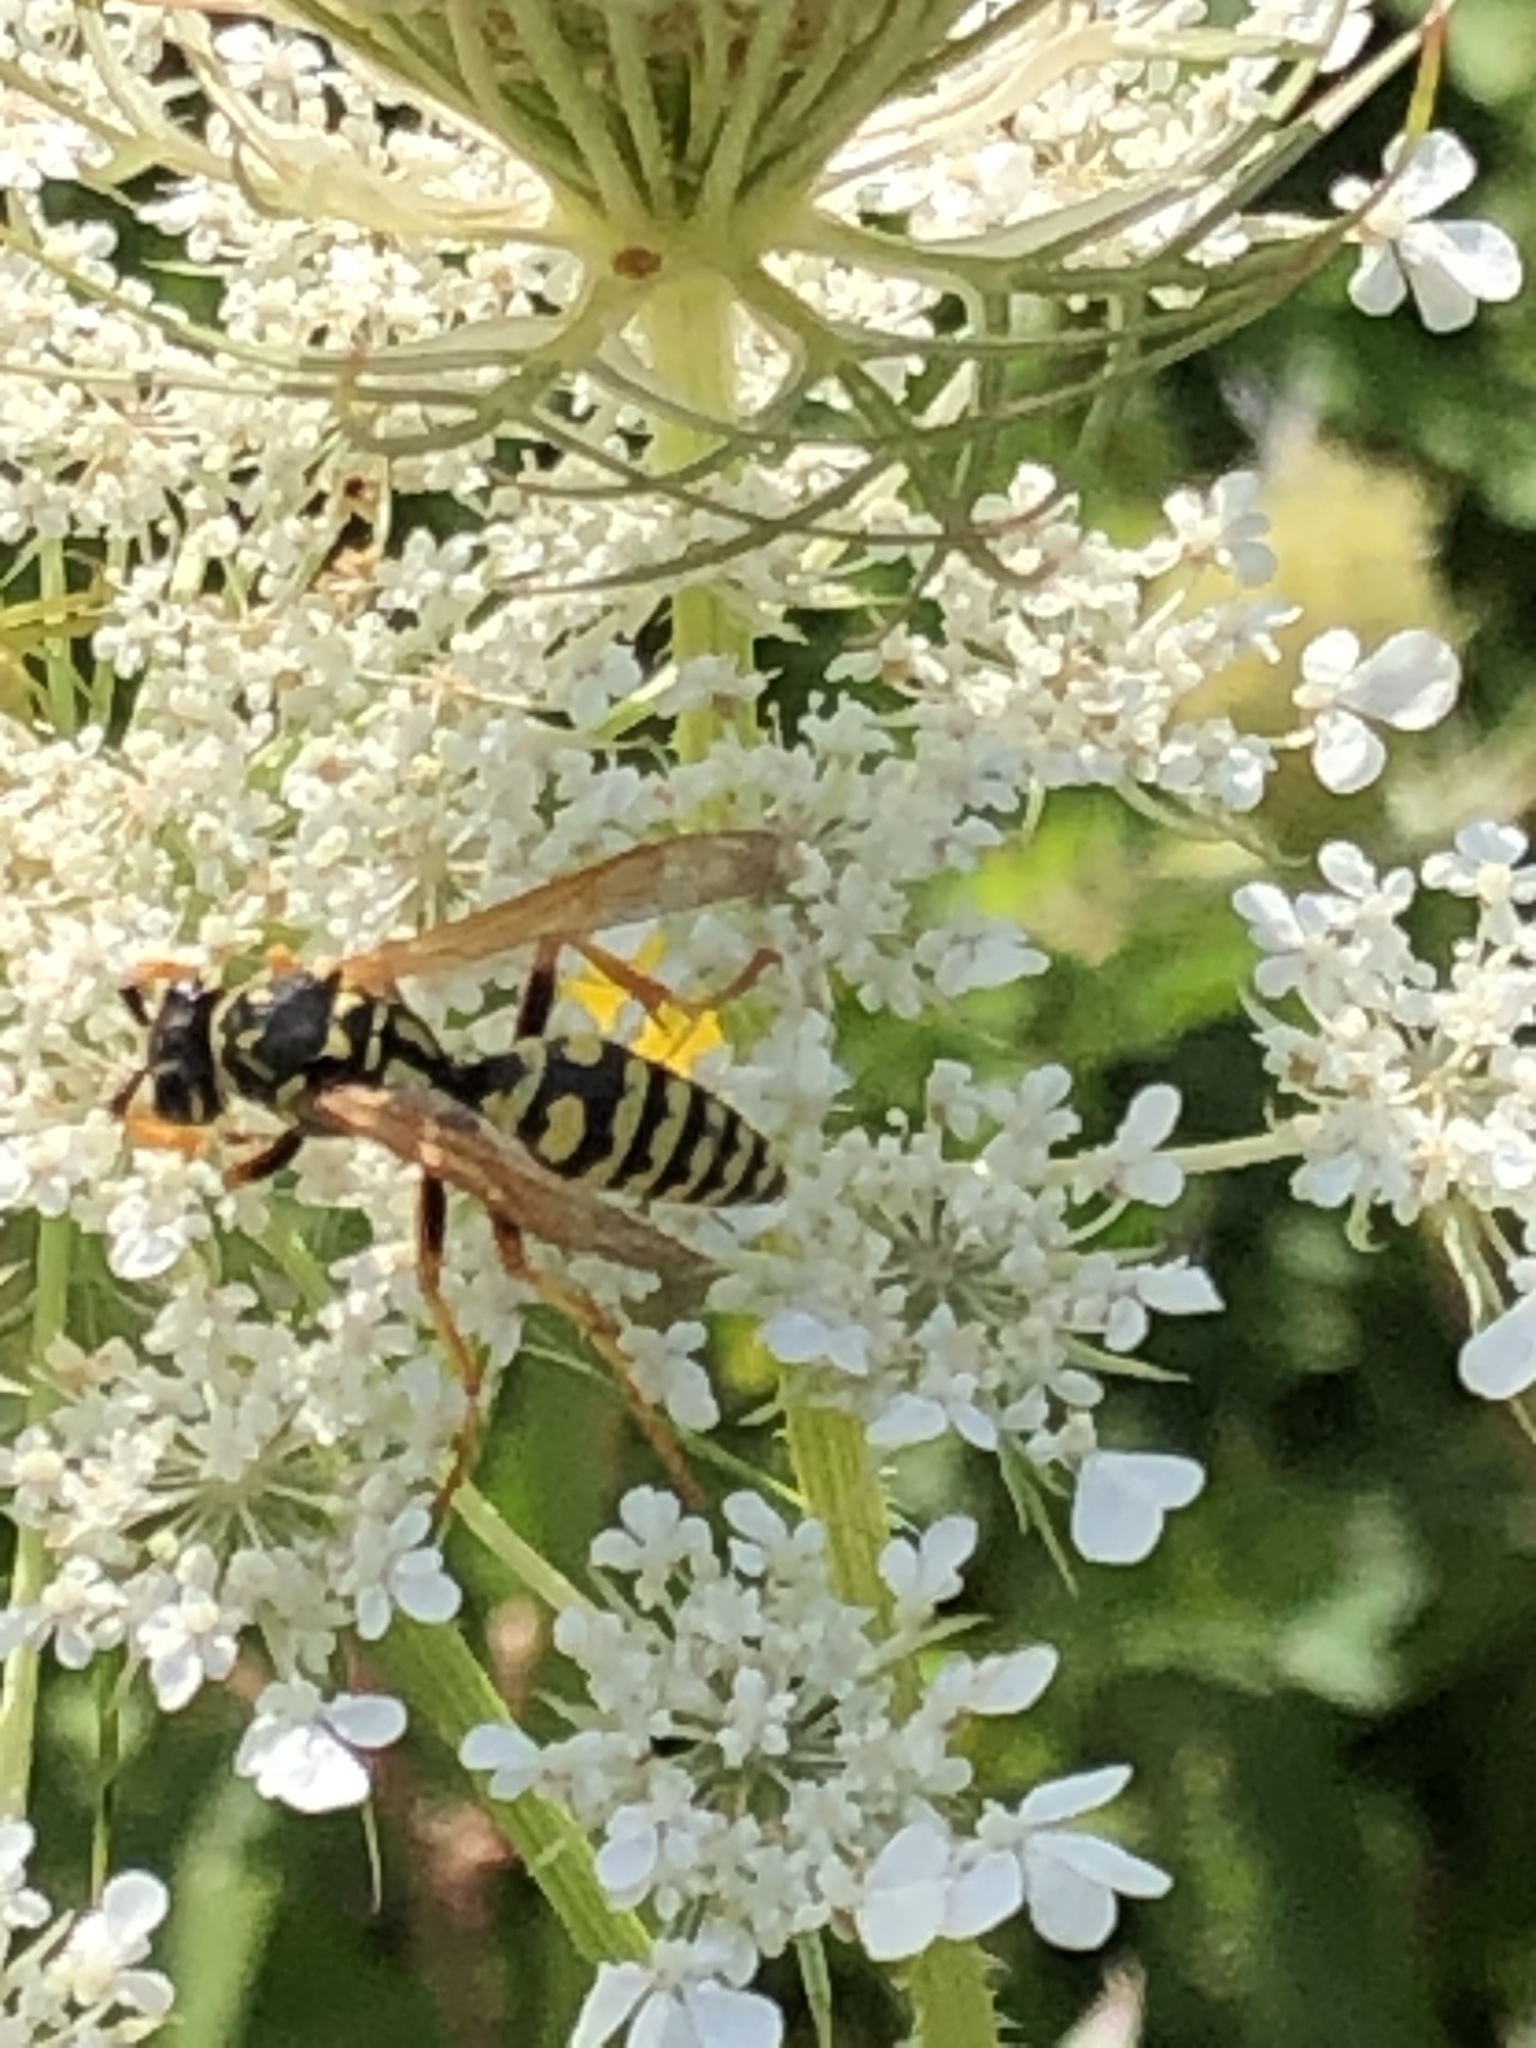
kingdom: Animalia
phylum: Arthropoda
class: Insecta
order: Hymenoptera
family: Eumenidae
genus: Polistes
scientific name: Polistes dominula
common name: Paper wasp
